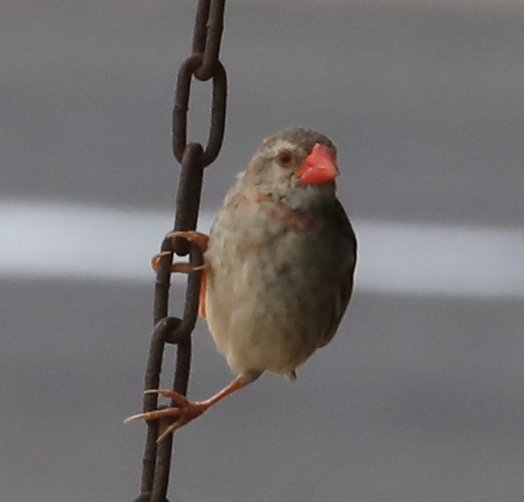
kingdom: Animalia
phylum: Chordata
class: Aves
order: Passeriformes
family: Ploceidae
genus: Quelea
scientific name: Quelea quelea
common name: Red-billed quelea
